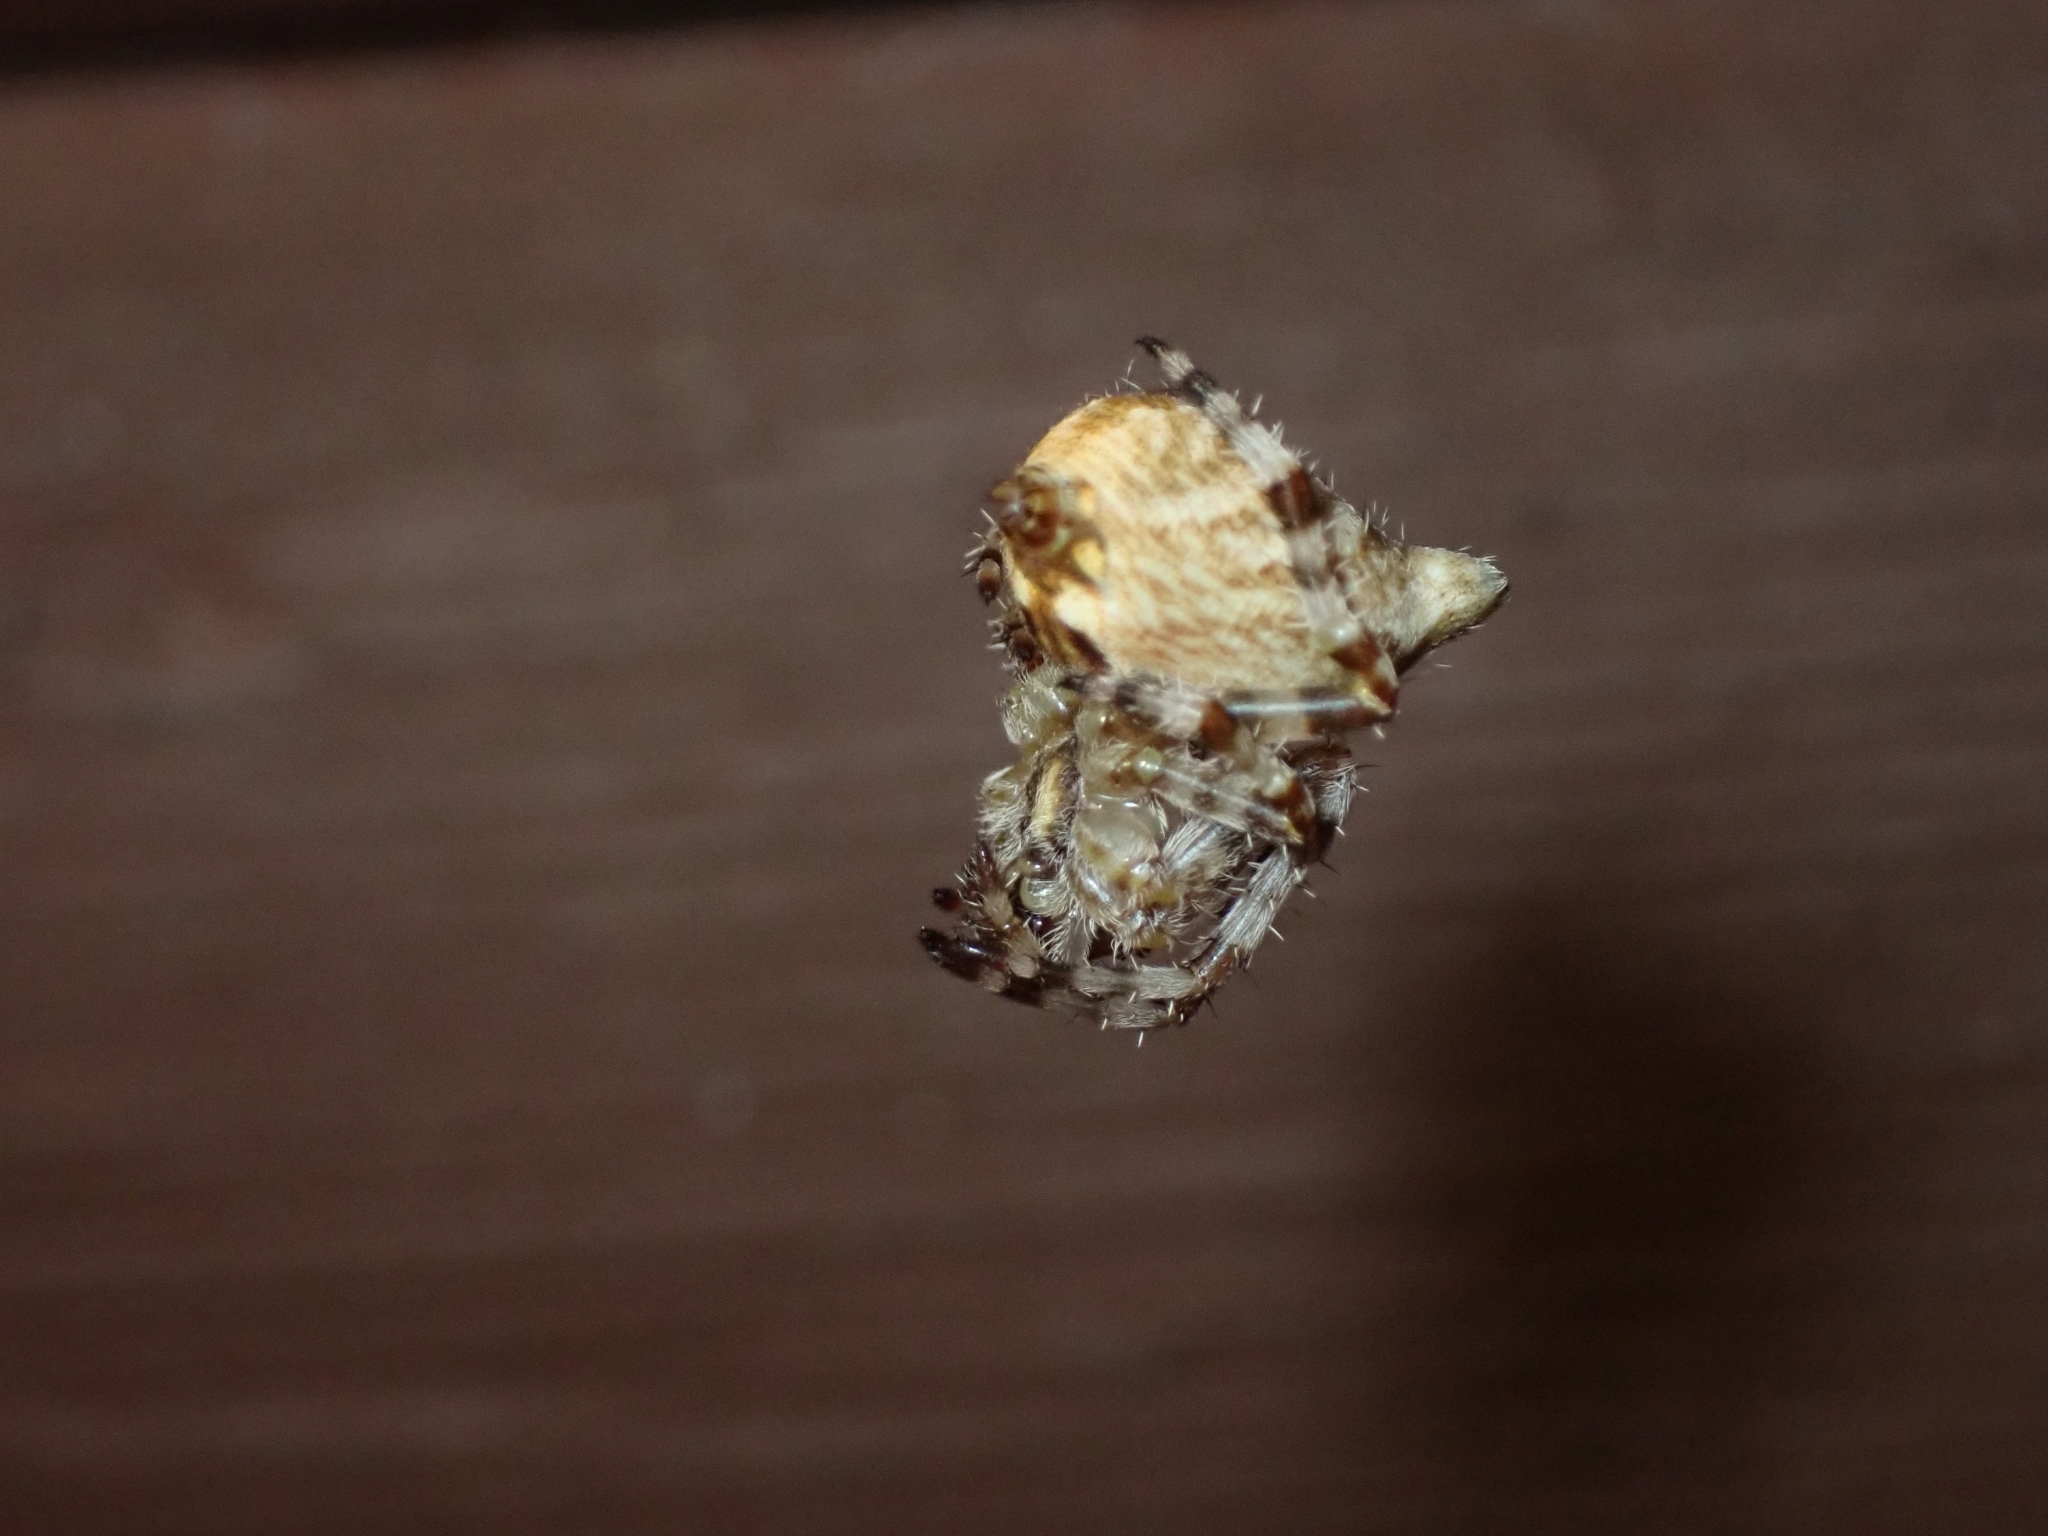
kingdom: Animalia
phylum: Arthropoda
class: Arachnida
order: Araneae
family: Araneidae
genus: Araneus
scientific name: Araneus gemmoides
